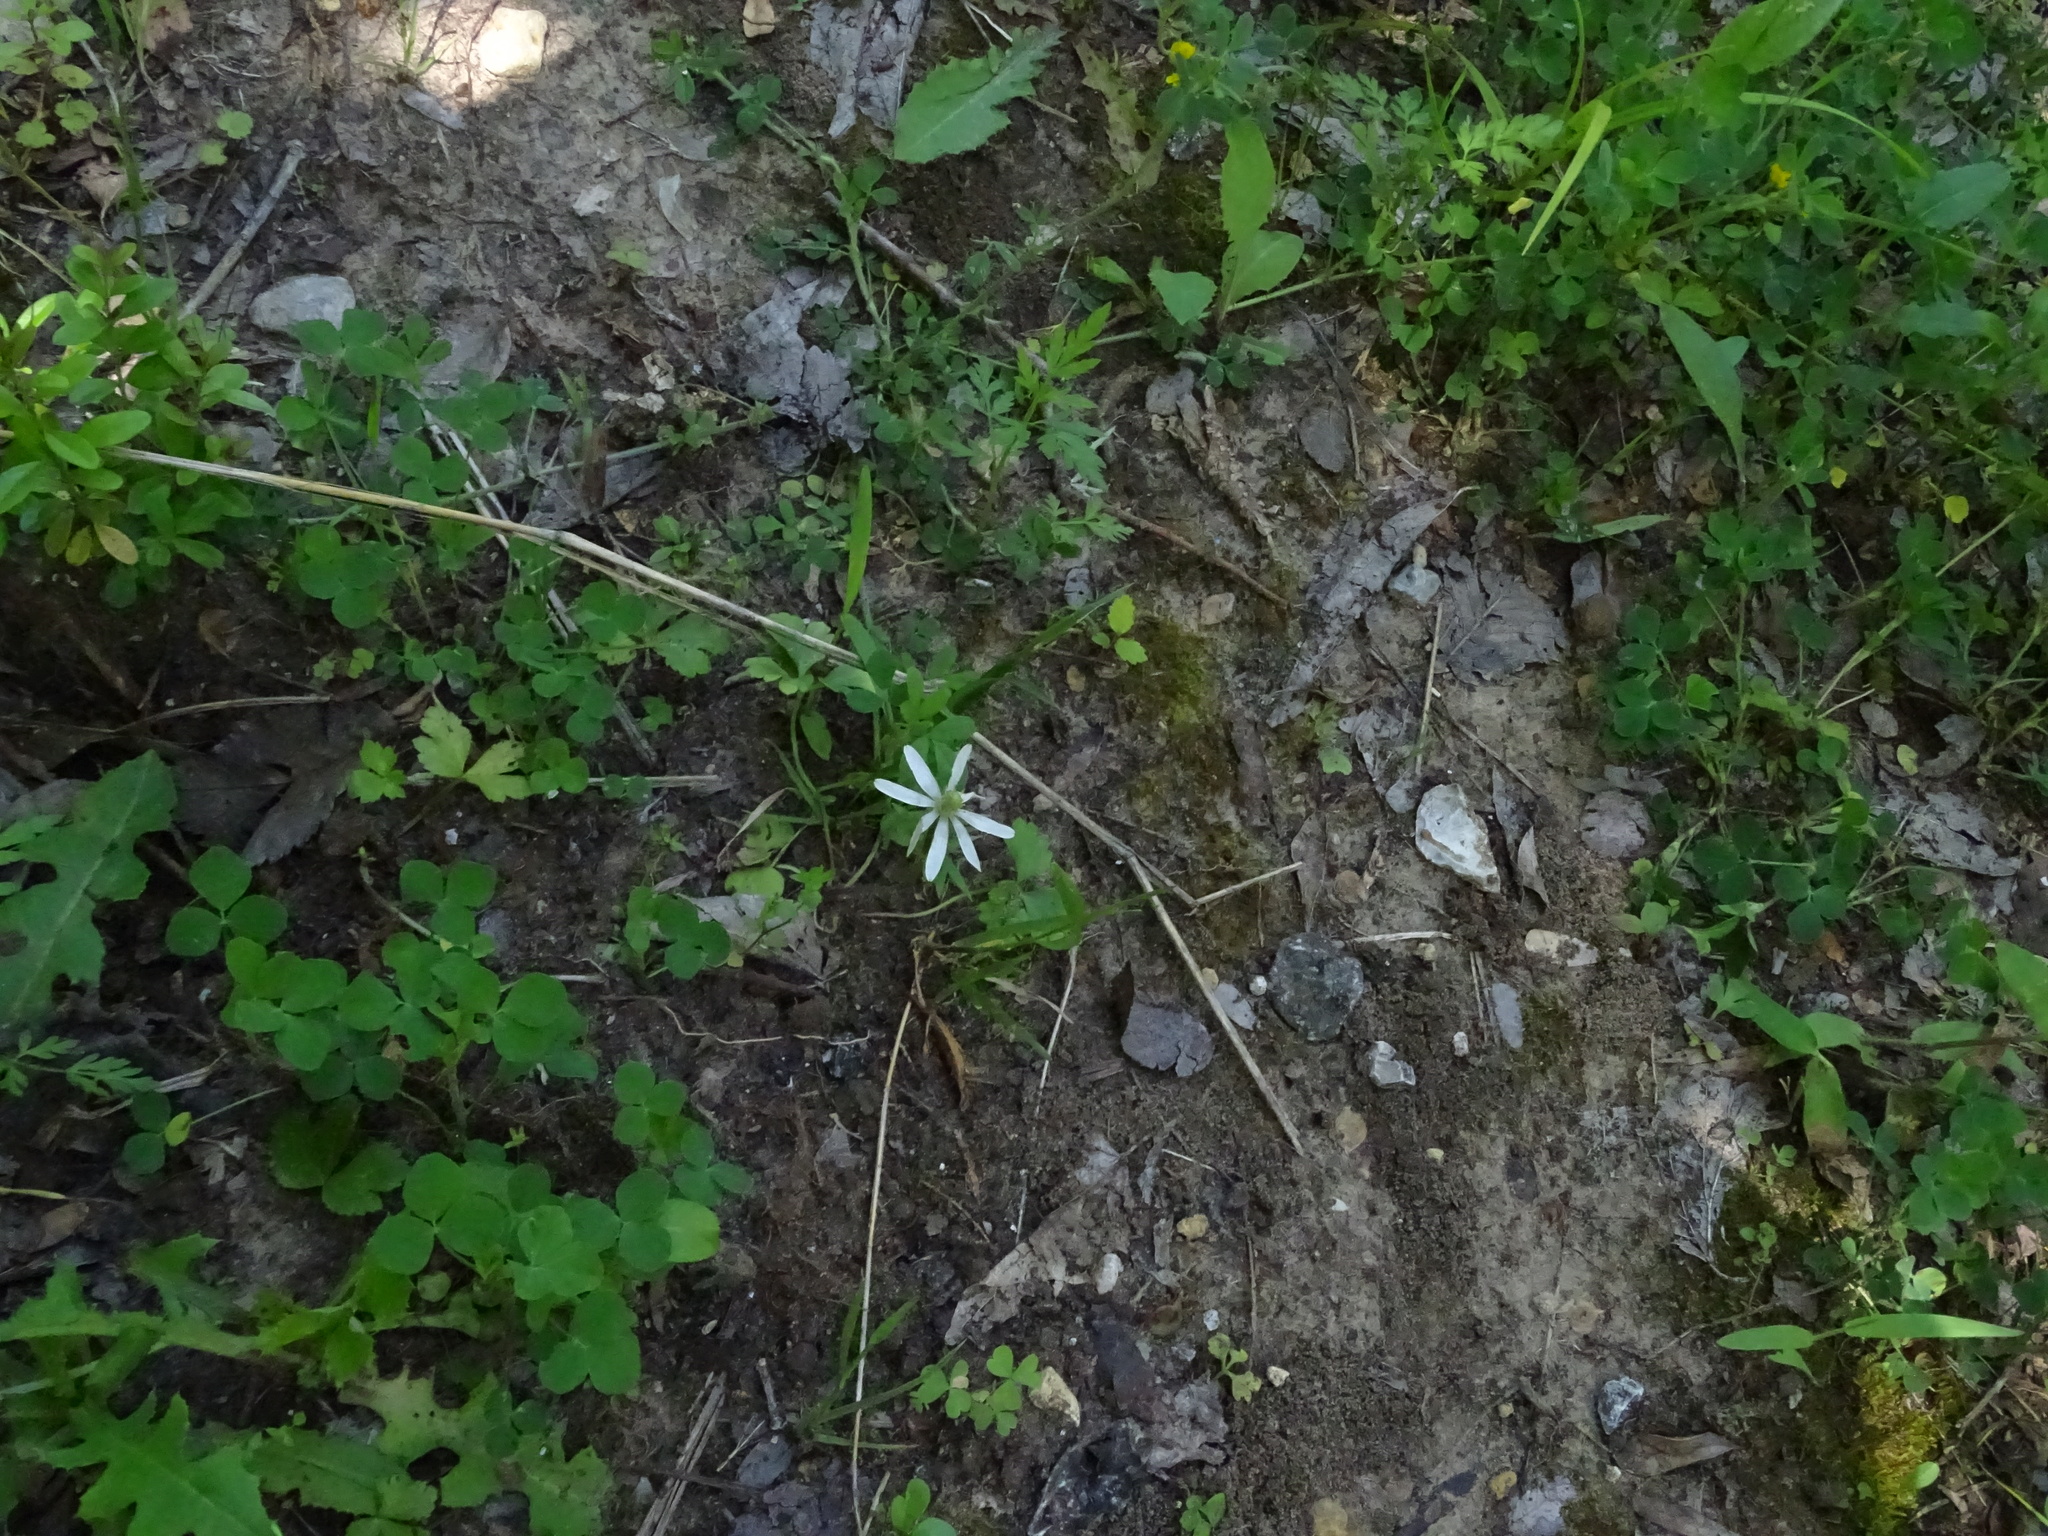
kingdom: Plantae
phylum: Tracheophyta
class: Magnoliopsida
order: Ranunculales
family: Ranunculaceae
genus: Anemone
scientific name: Anemone berlandieri
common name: Ten-petal anemone
